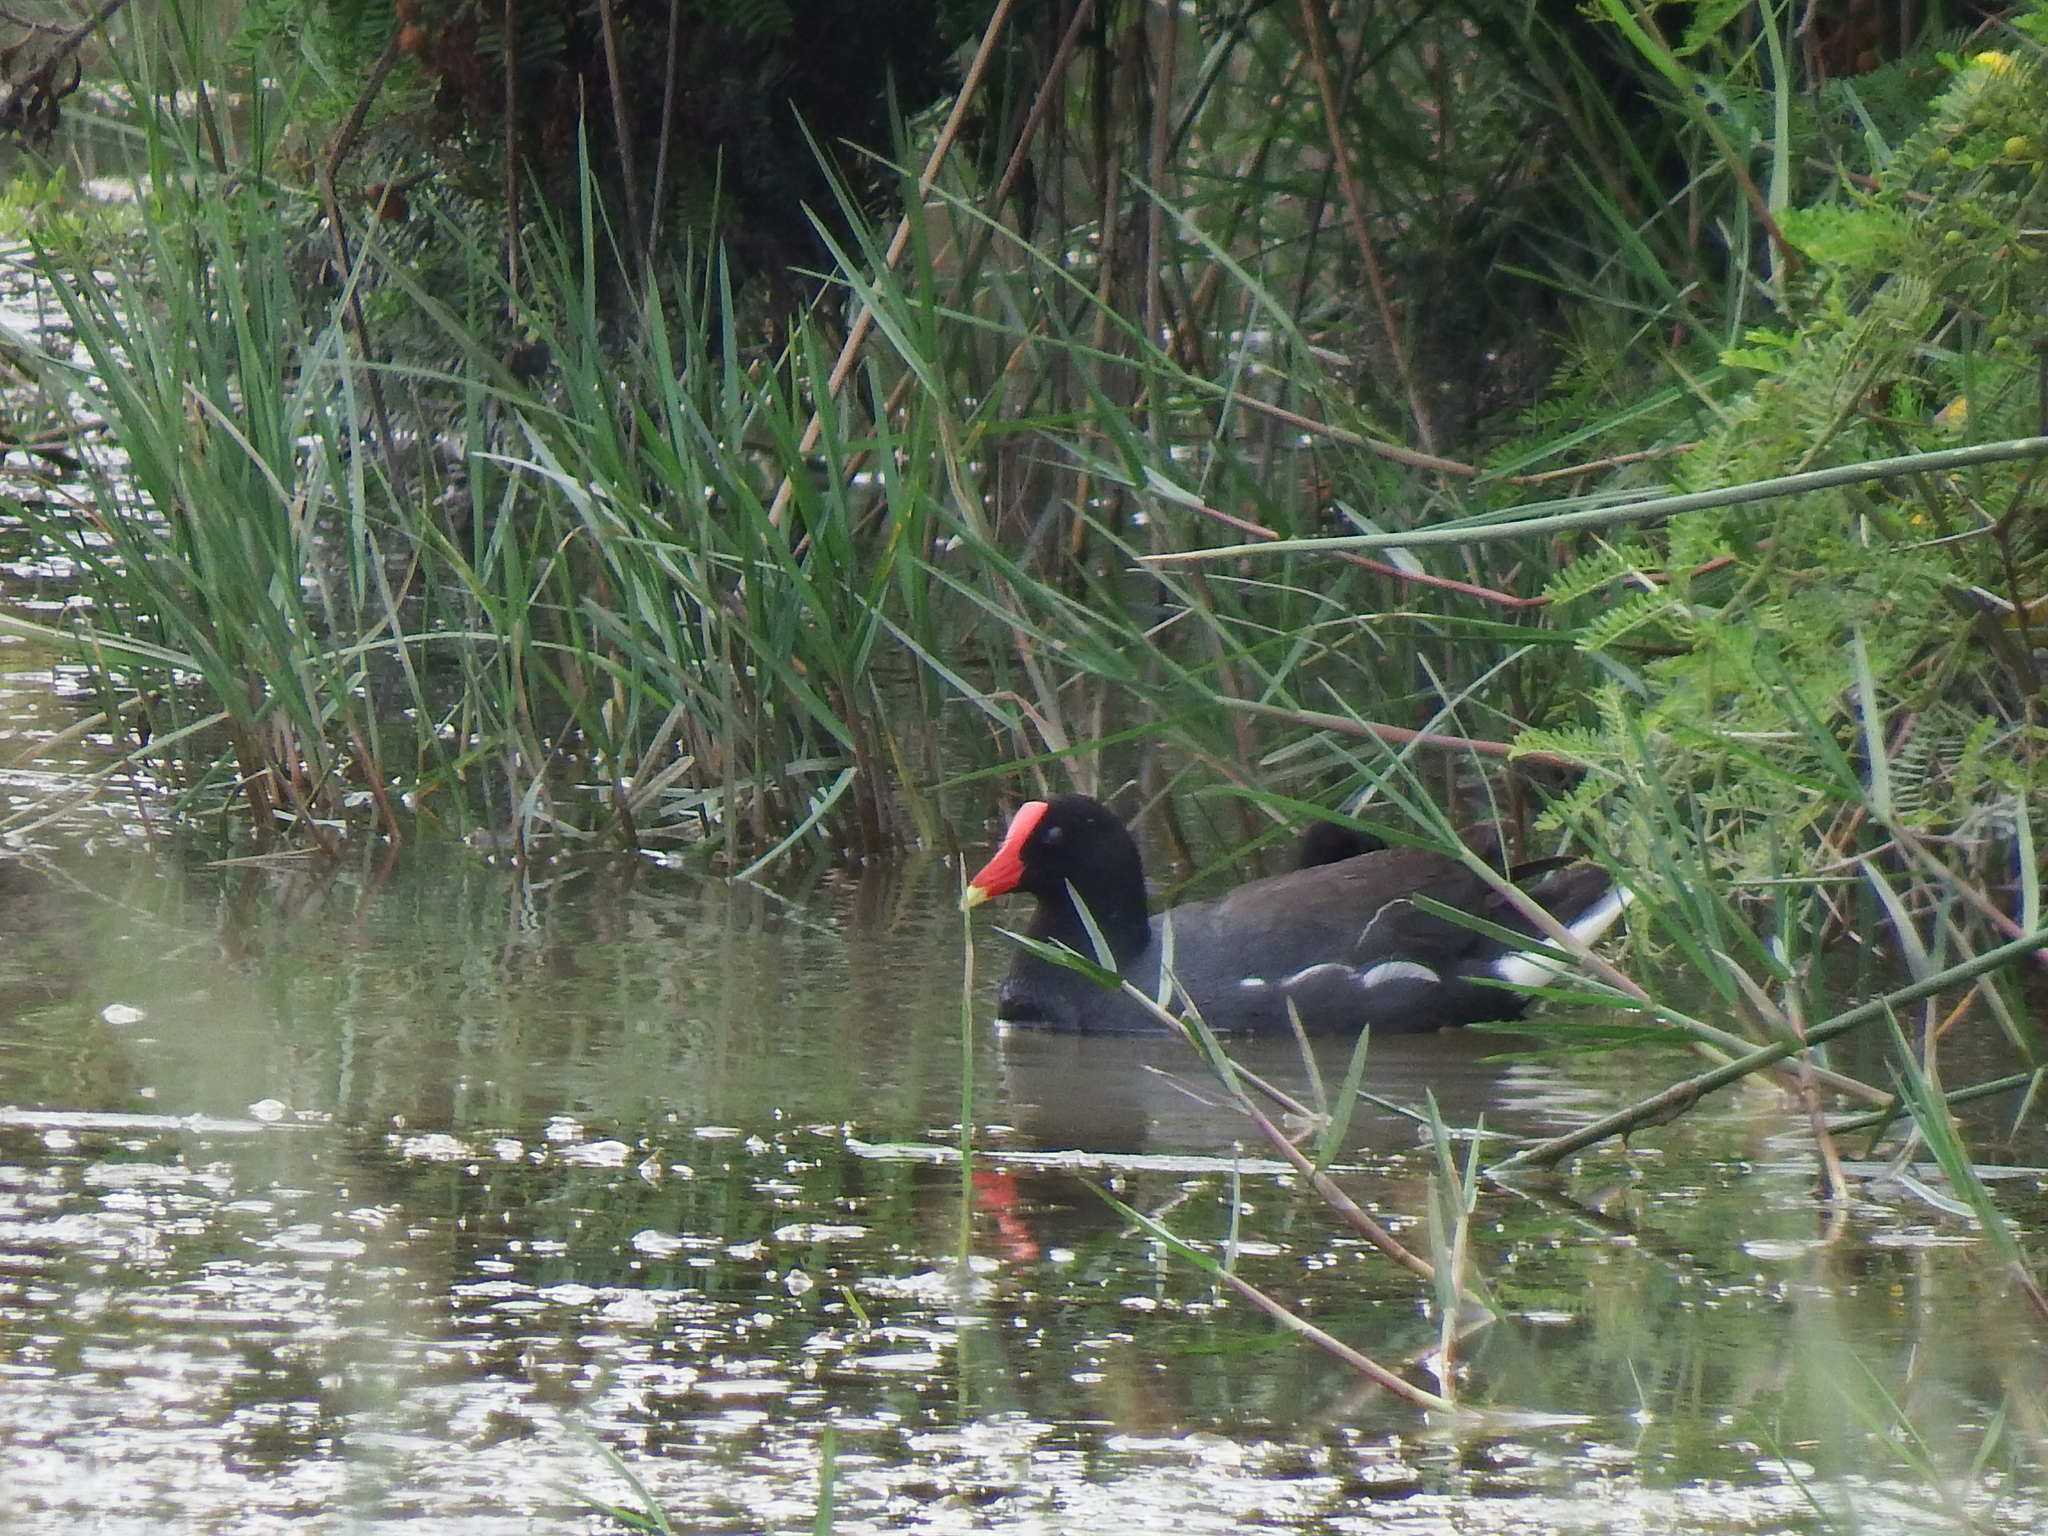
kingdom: Animalia
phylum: Chordata
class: Aves
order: Gruiformes
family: Rallidae
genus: Gallinula
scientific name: Gallinula chloropus
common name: Common moorhen
